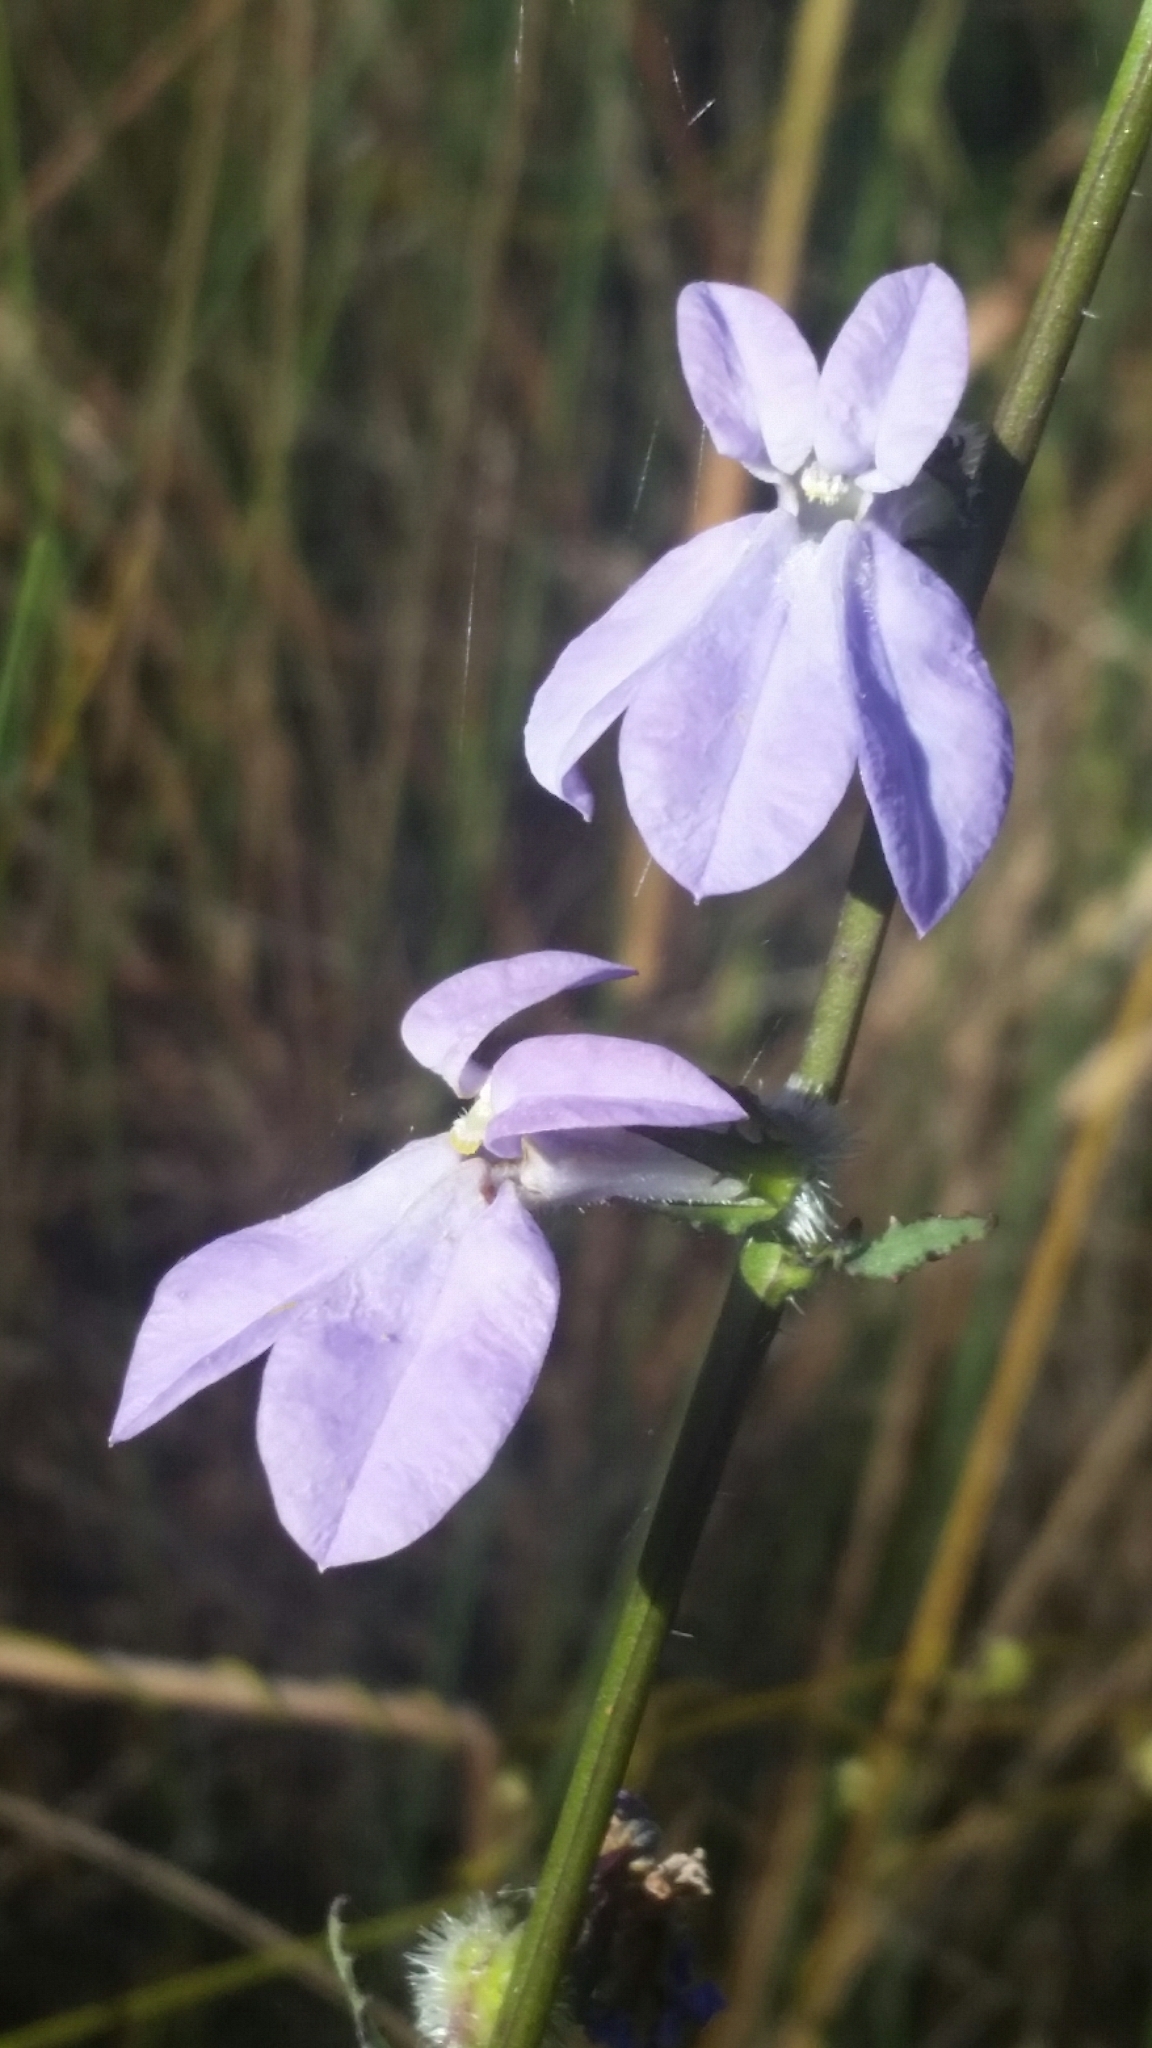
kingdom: Plantae
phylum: Tracheophyta
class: Magnoliopsida
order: Asterales
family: Campanulaceae
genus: Lobelia
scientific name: Lobelia glandulosa
